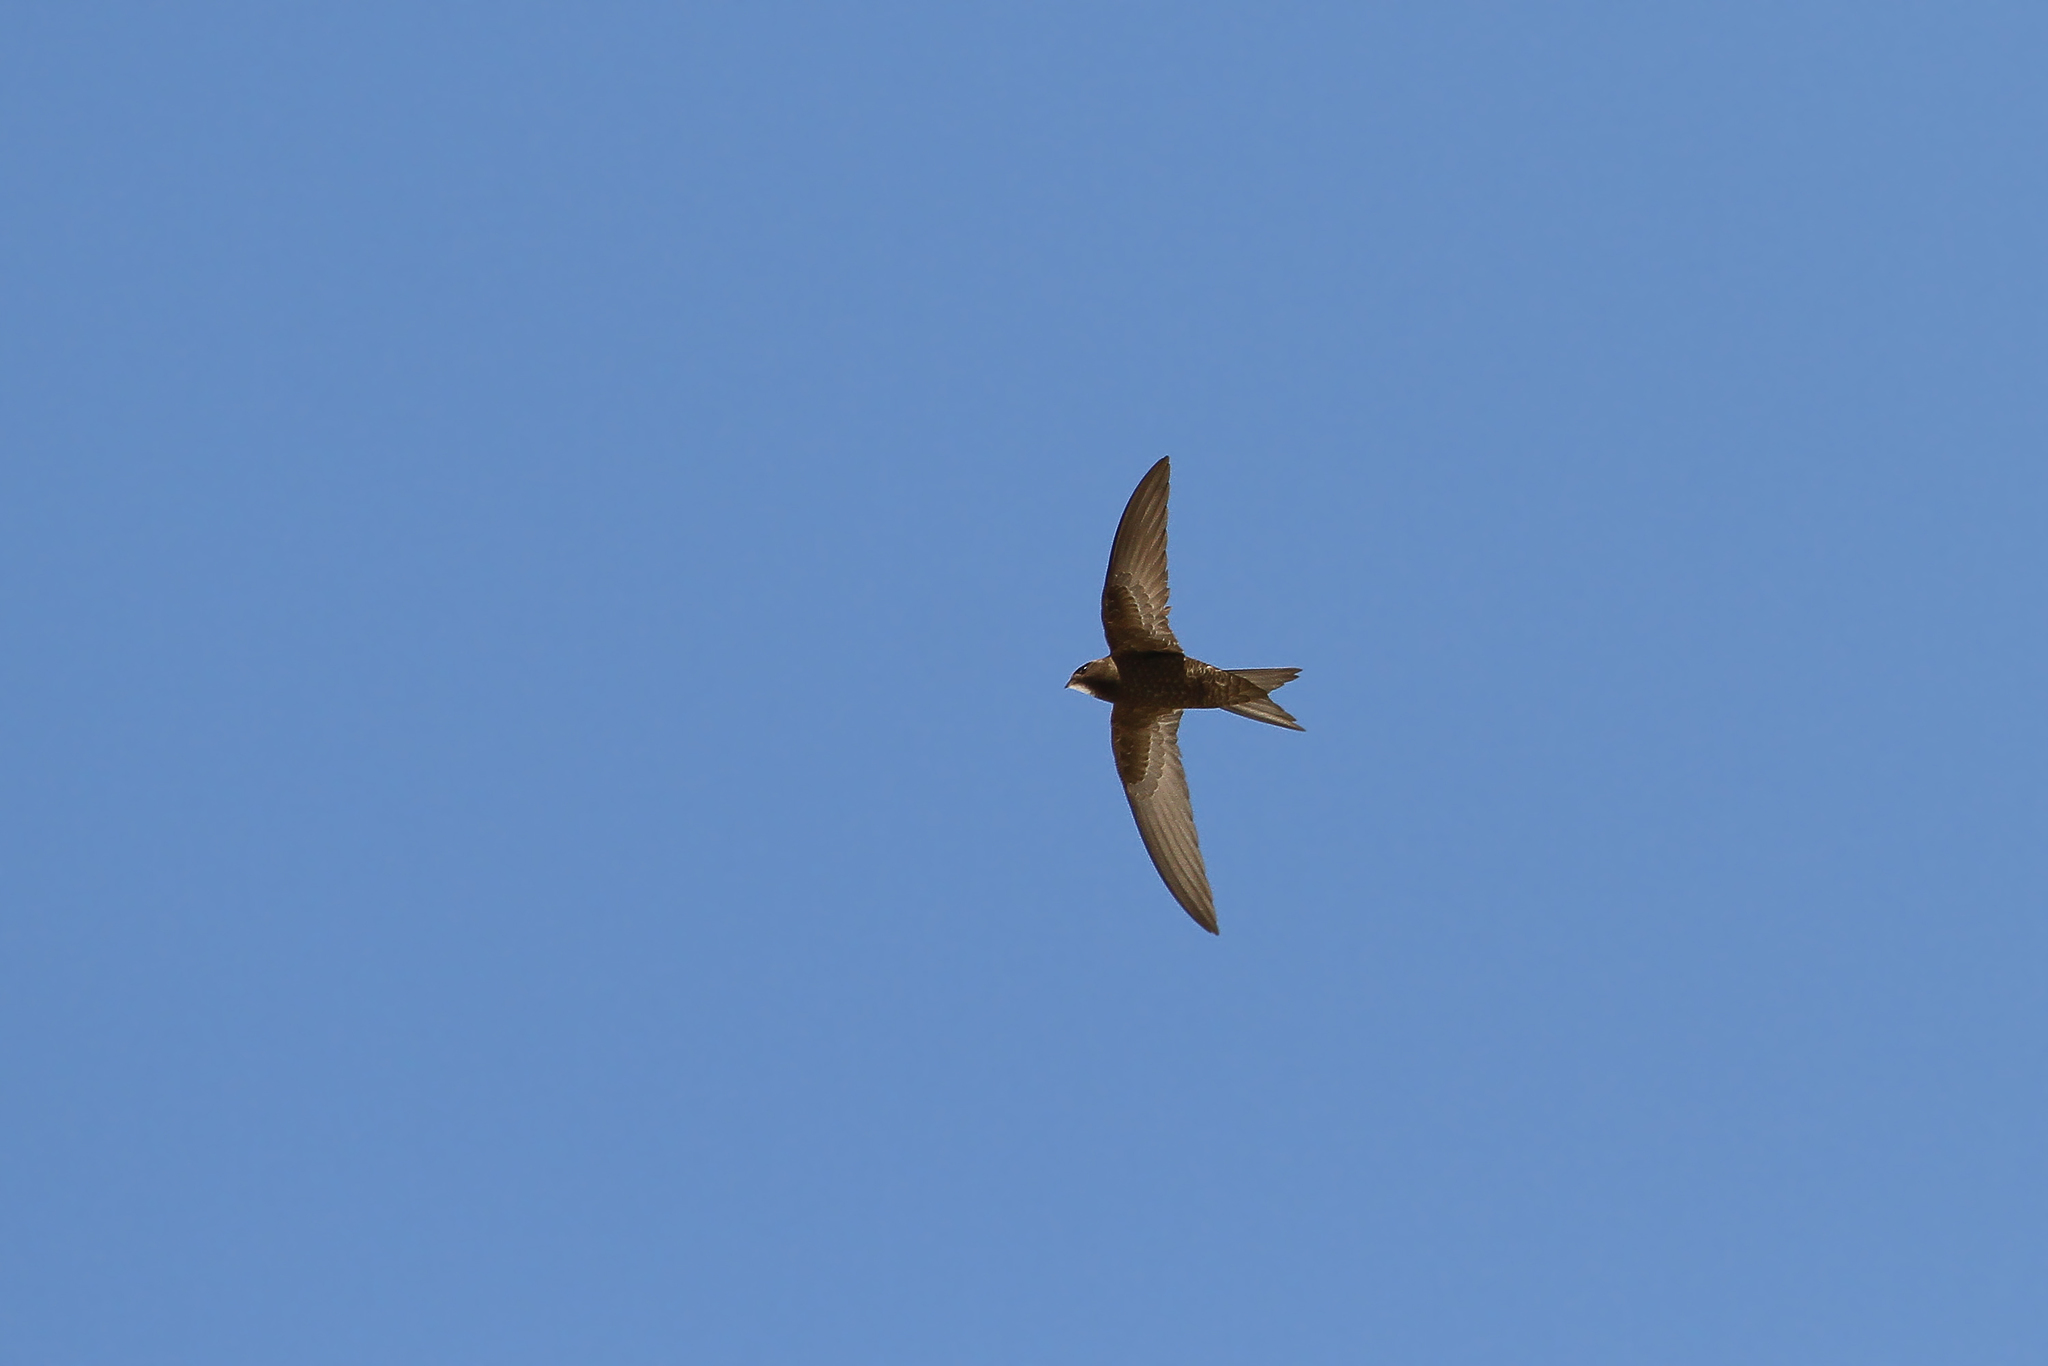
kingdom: Animalia
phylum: Chordata
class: Aves
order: Apodiformes
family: Apodidae
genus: Apus
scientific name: Apus apus
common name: Common swift
